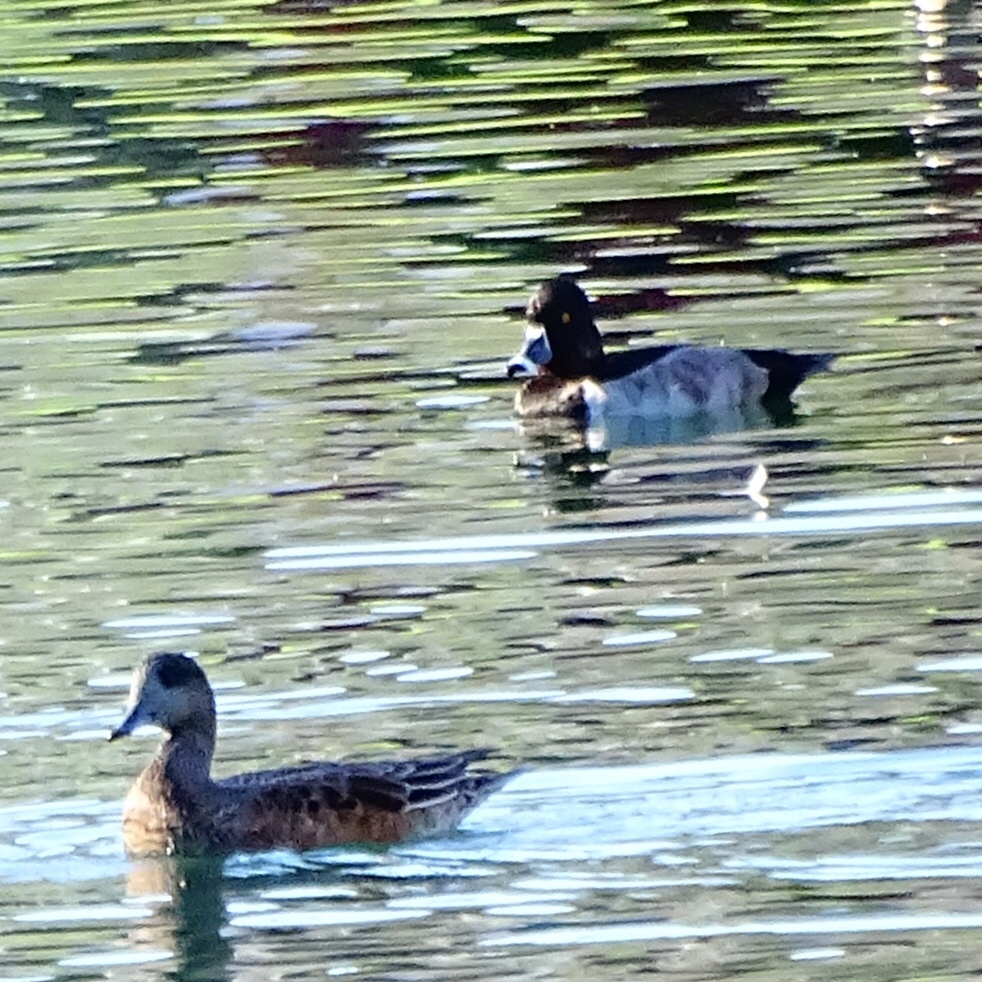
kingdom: Animalia
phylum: Chordata
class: Aves
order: Anseriformes
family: Anatidae
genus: Mareca
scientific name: Mareca americana
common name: American wigeon
